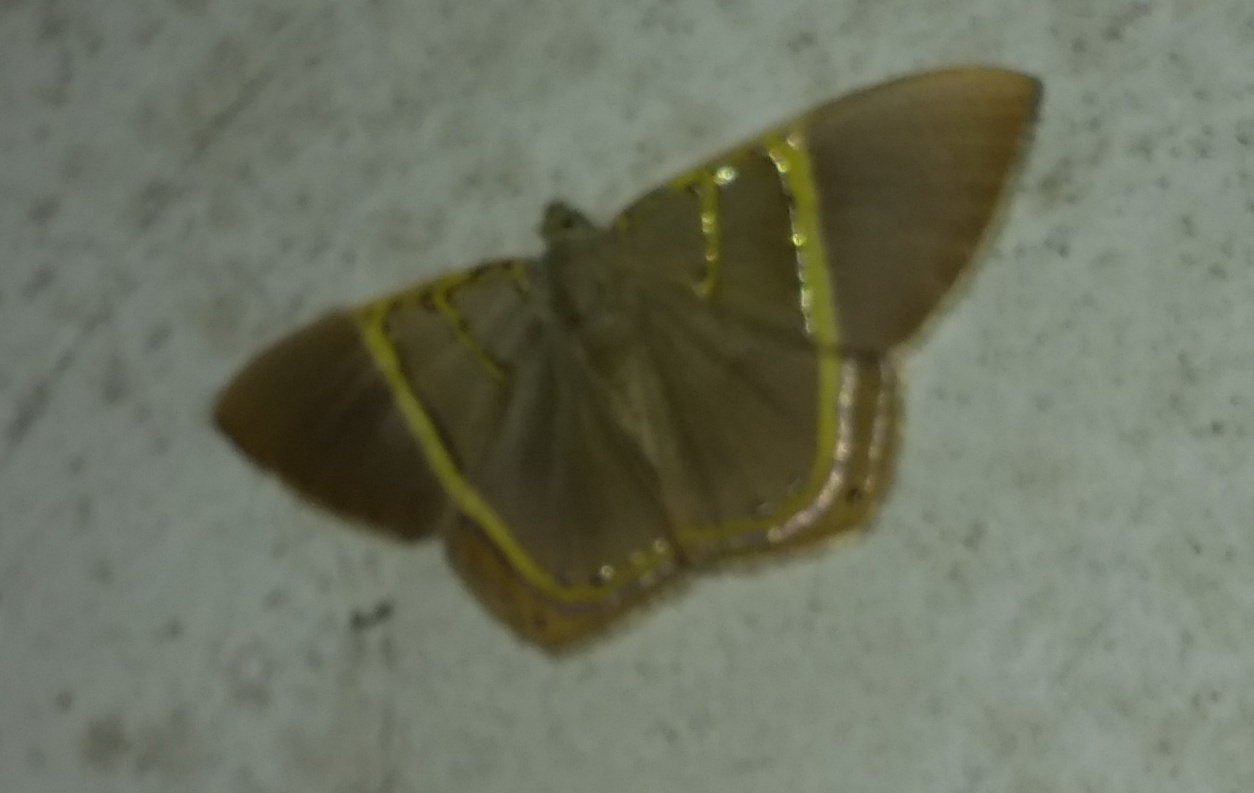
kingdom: Animalia
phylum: Arthropoda
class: Insecta
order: Lepidoptera
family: Geometridae
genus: Phrygionis
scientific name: Phrygionis polita
